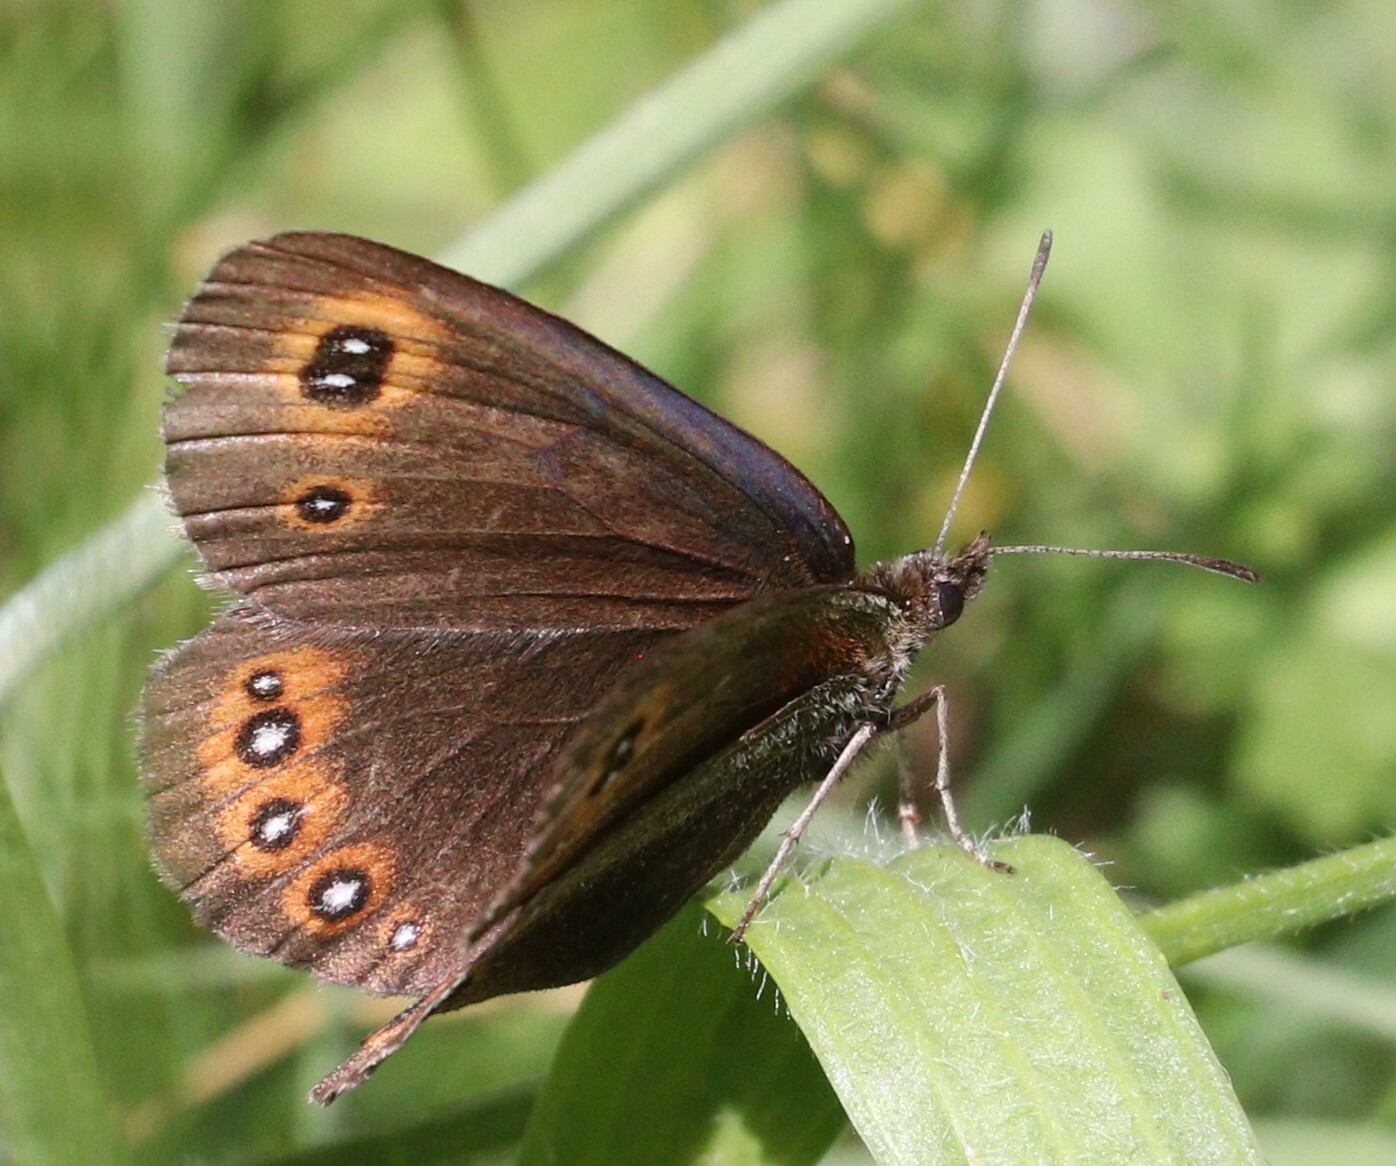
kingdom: Animalia
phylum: Arthropoda
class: Insecta
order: Lepidoptera
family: Nymphalidae
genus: Erebia
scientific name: Erebia oeme
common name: Bright-eyed ringlet
